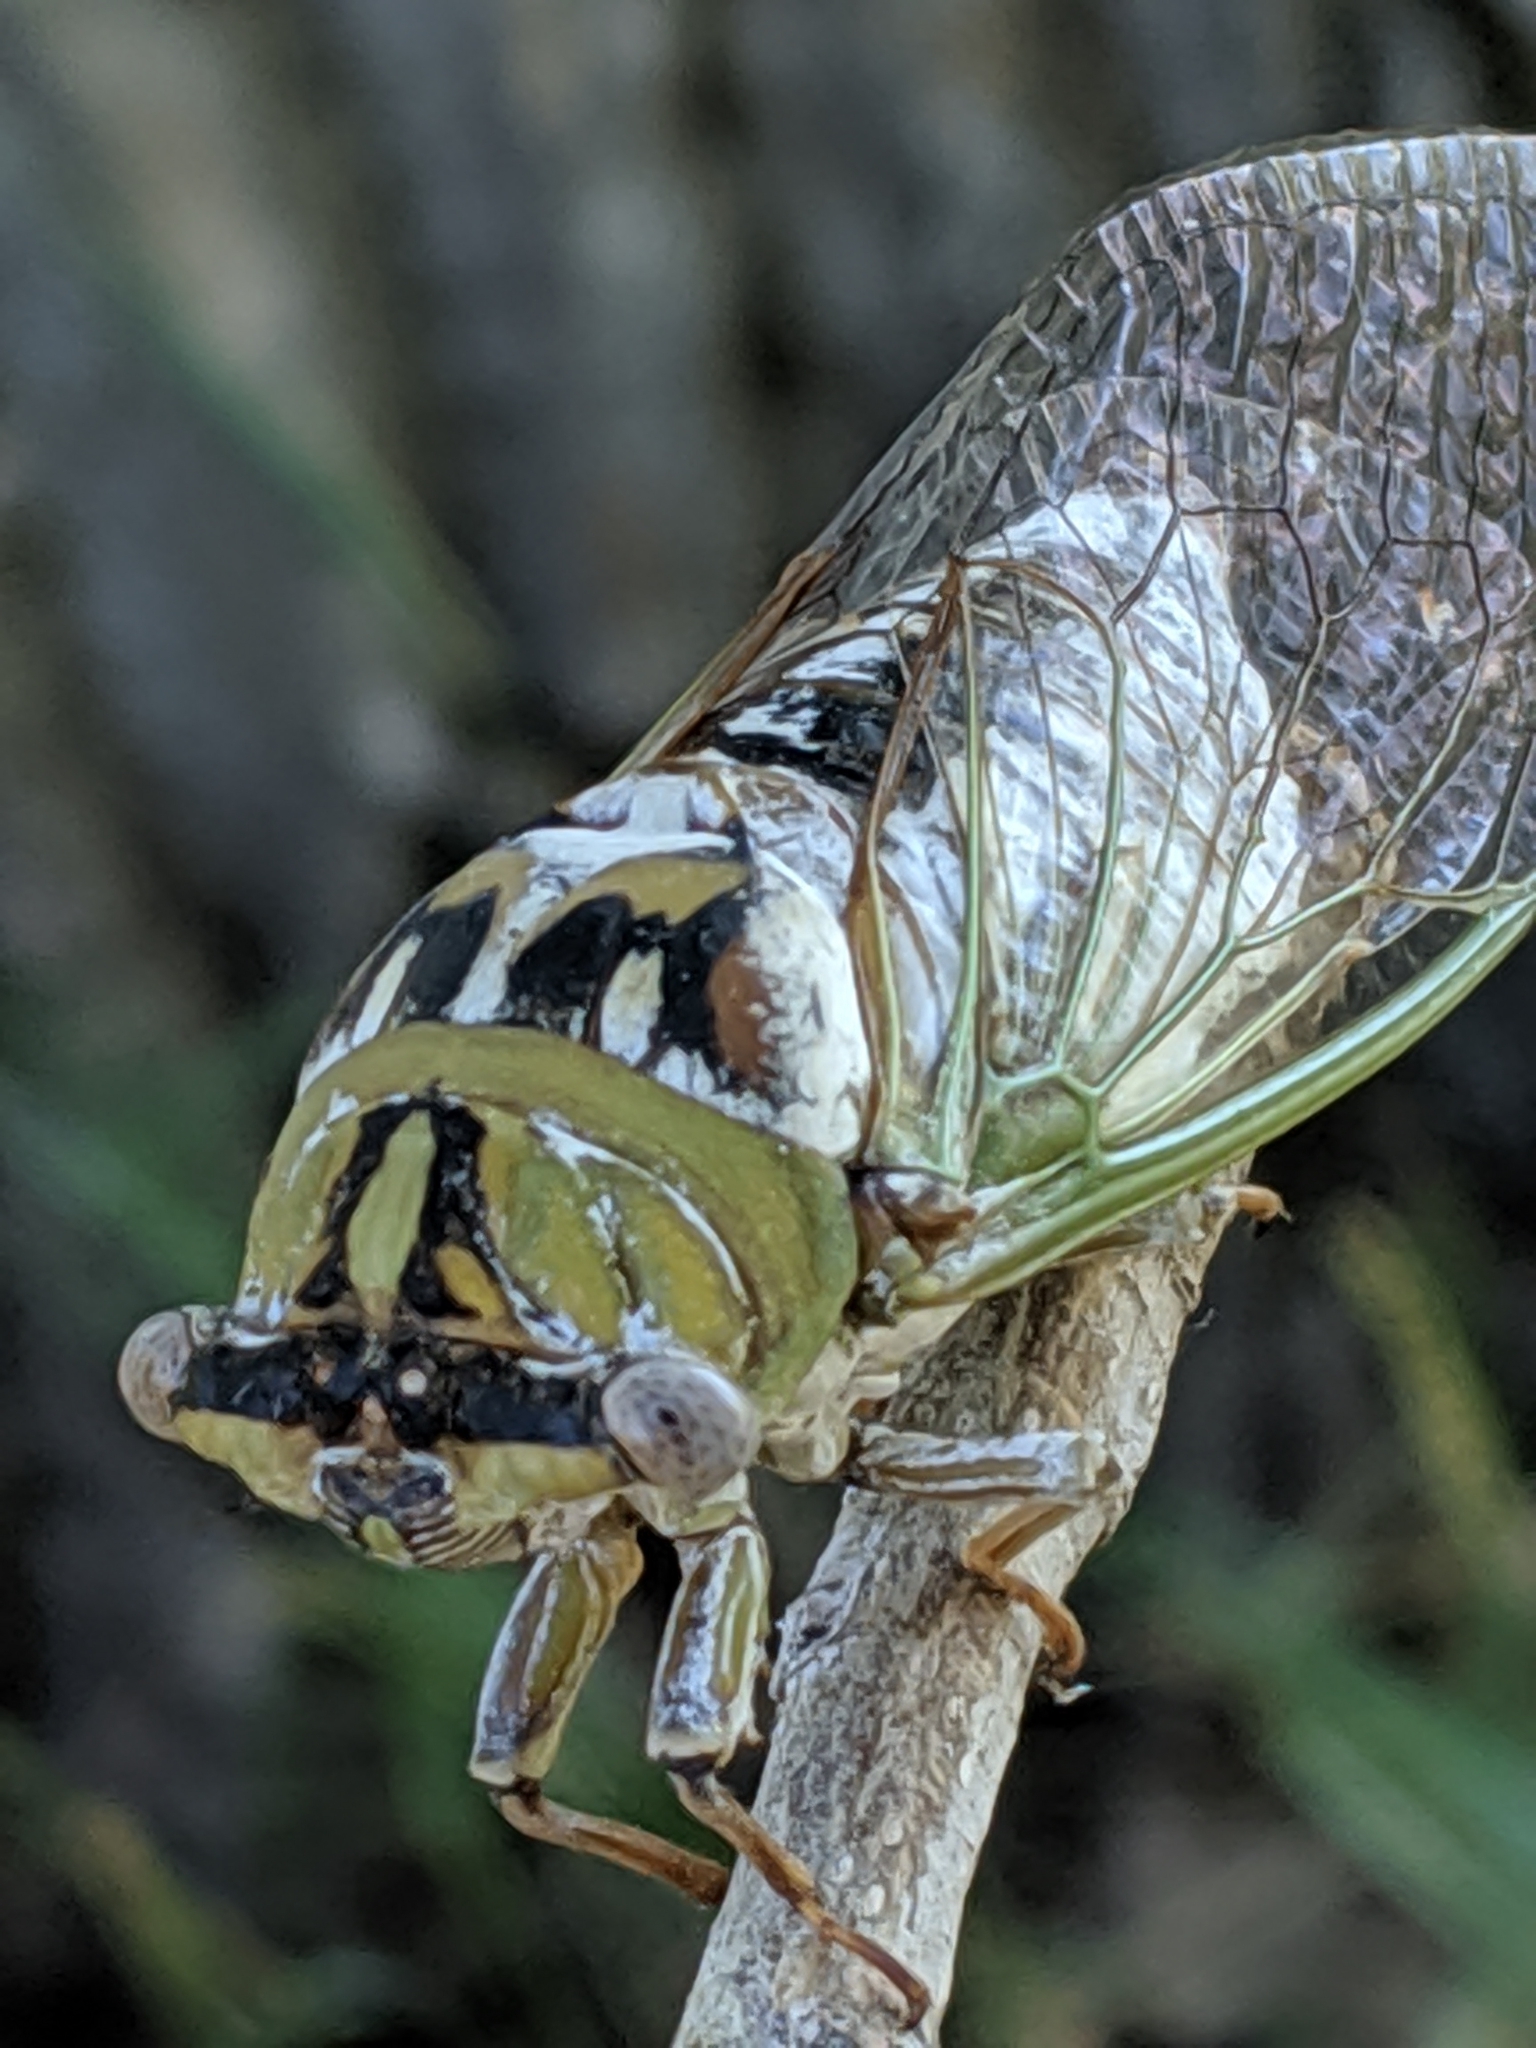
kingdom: Animalia
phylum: Arthropoda
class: Insecta
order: Hemiptera
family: Cicadidae
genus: Megatibicen
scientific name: Megatibicen dealbatus
